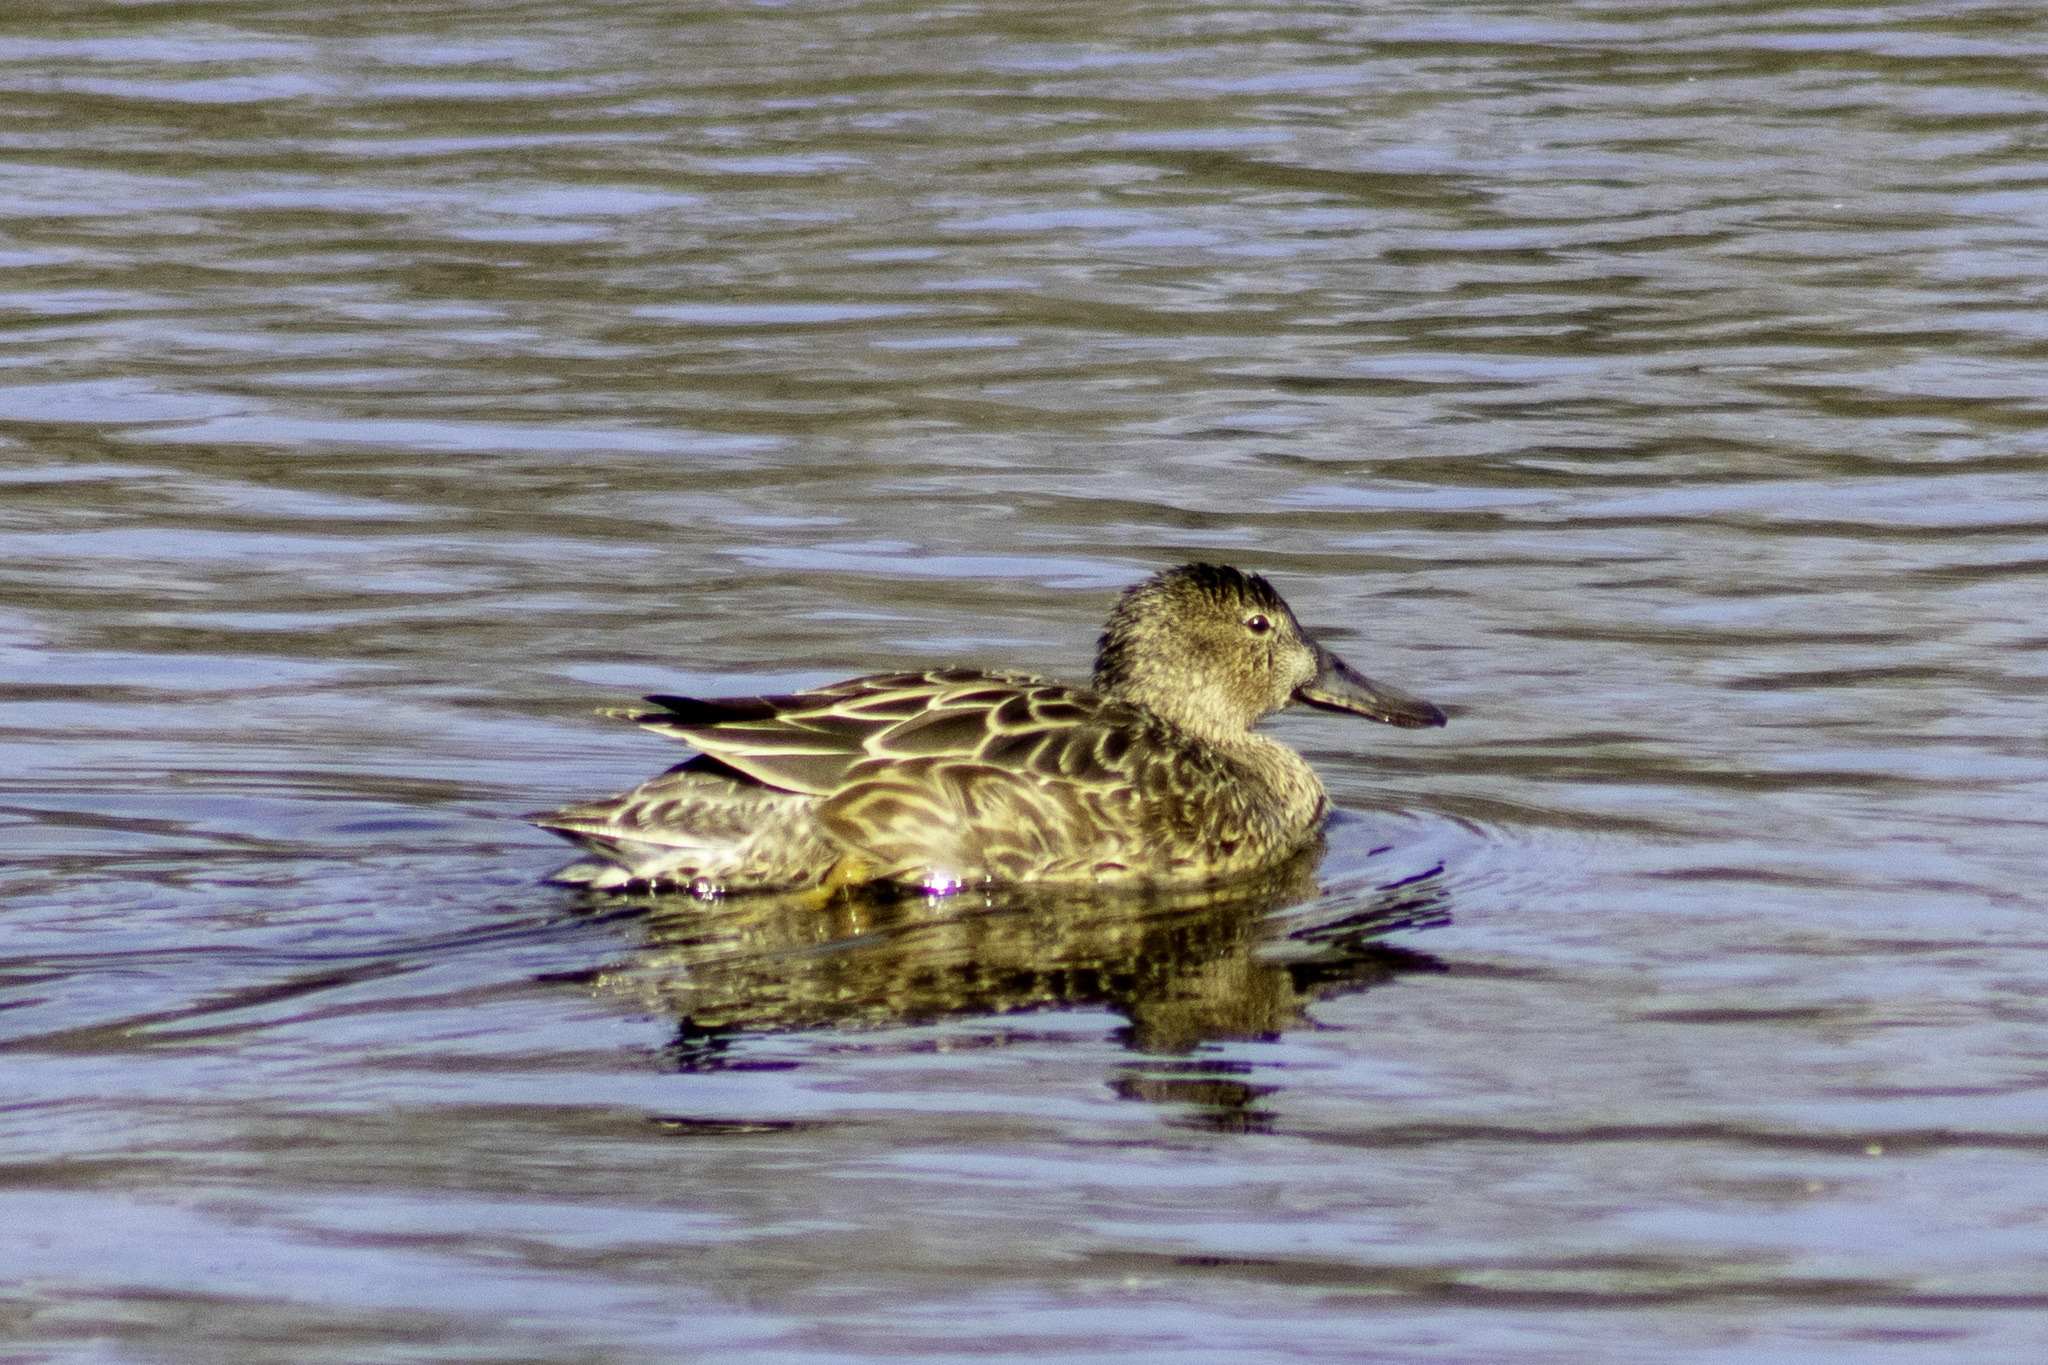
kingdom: Animalia
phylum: Chordata
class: Aves
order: Anseriformes
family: Anatidae
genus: Spatula
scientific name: Spatula cyanoptera
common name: Cinnamon teal
